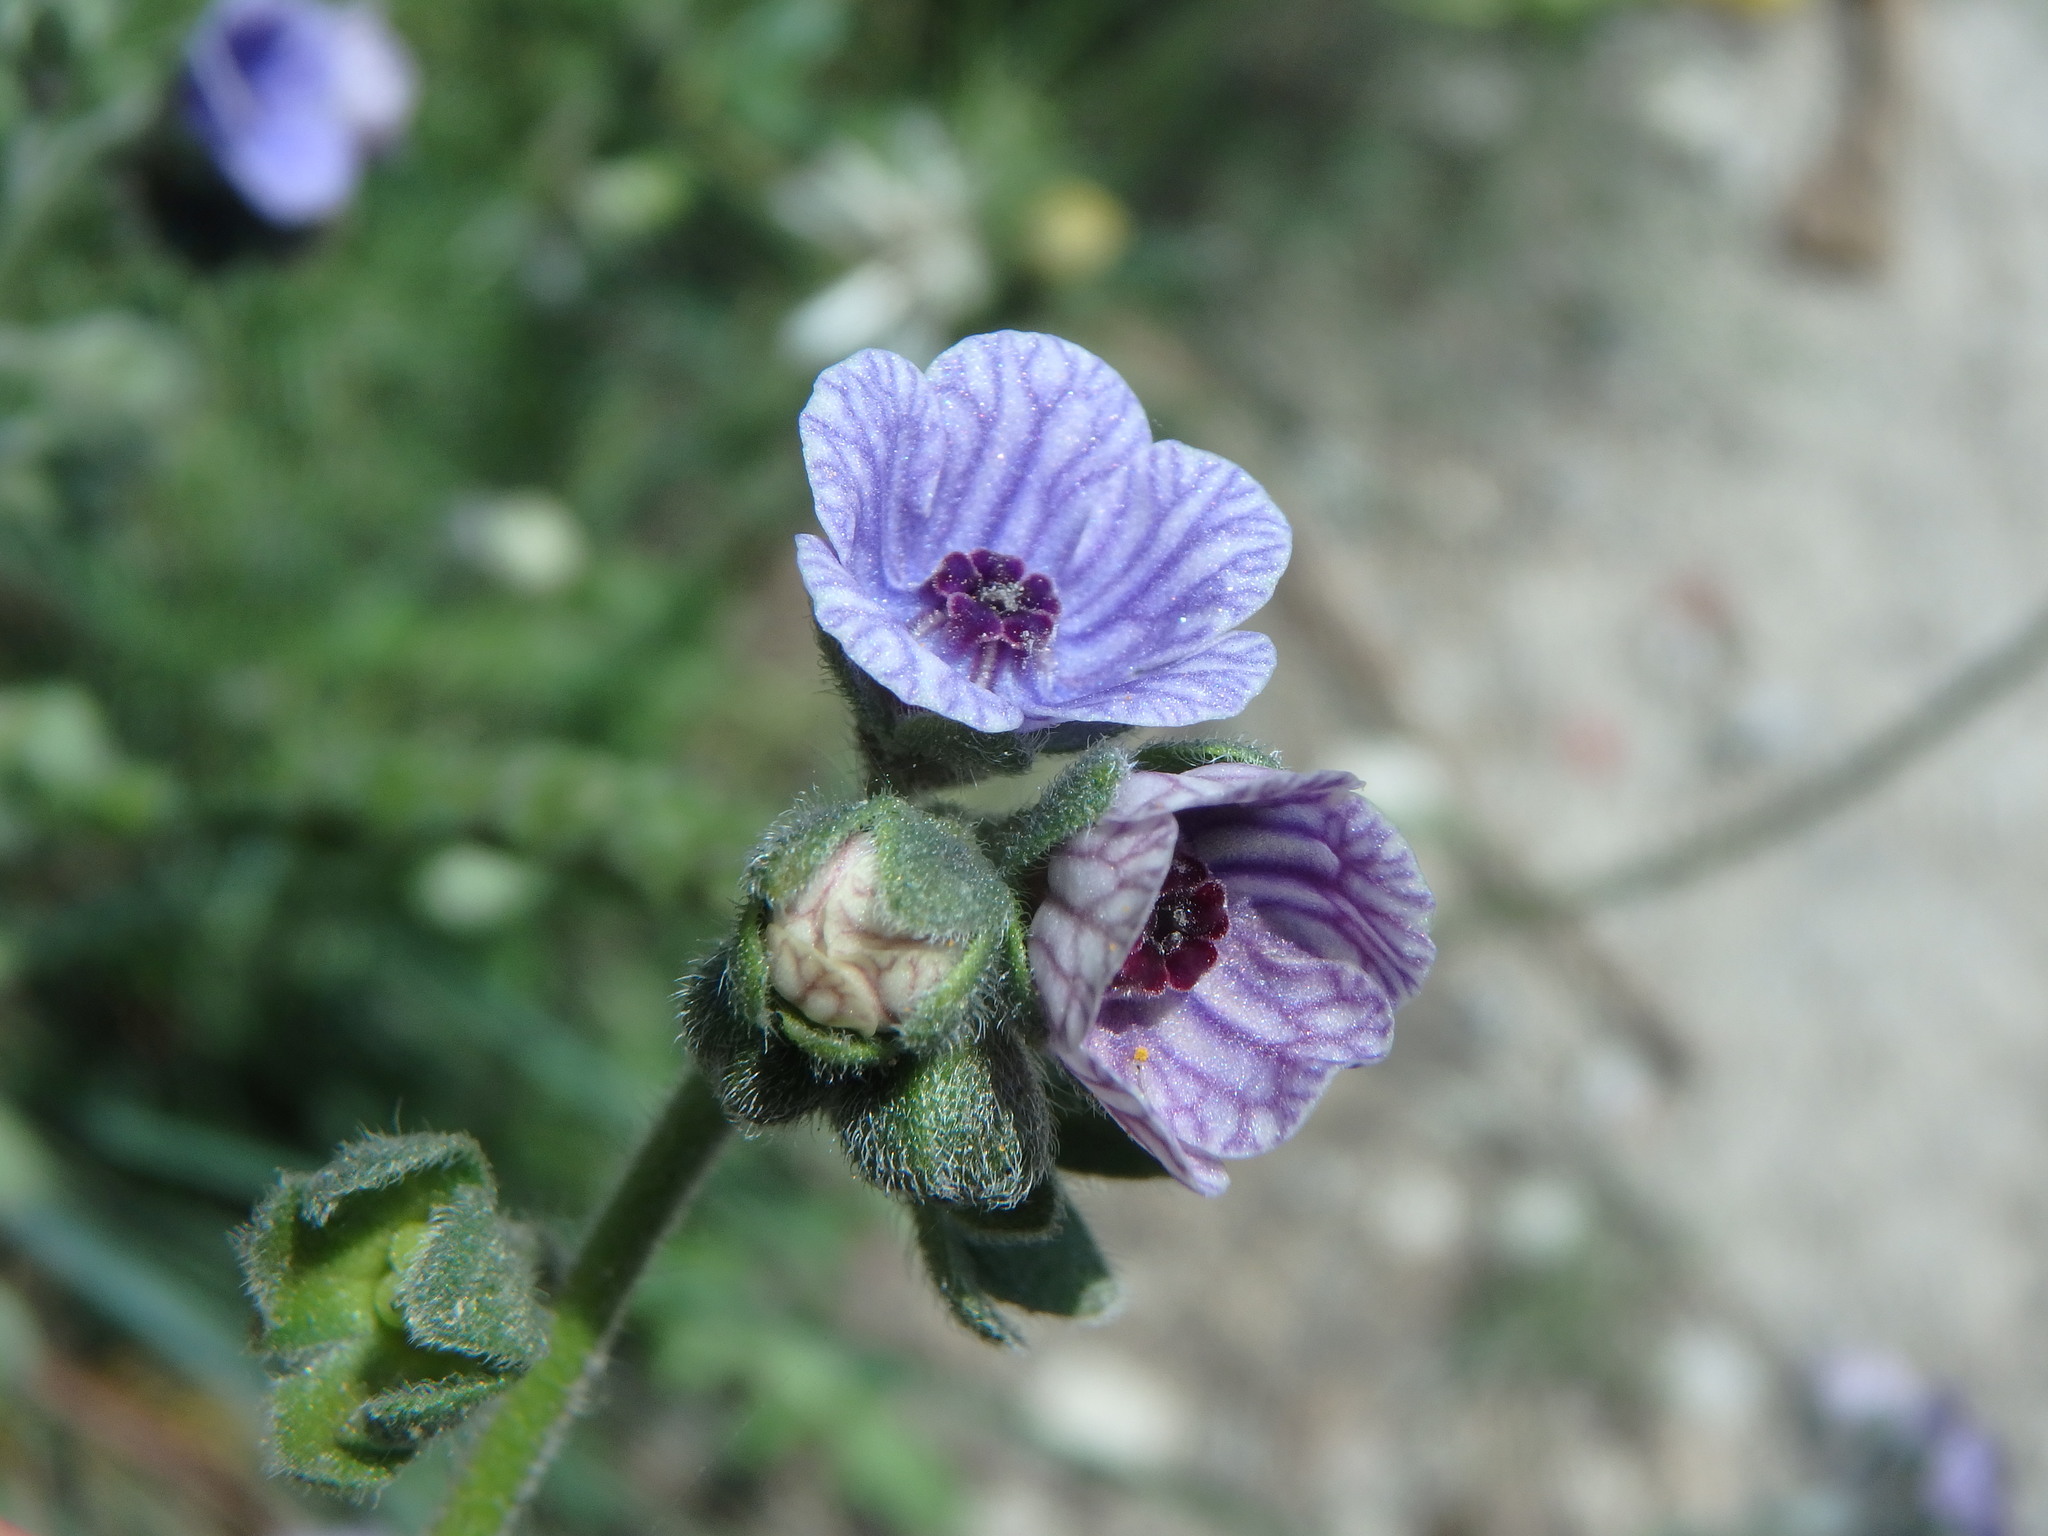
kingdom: Plantae
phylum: Tracheophyta
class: Magnoliopsida
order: Boraginales
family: Boraginaceae
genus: Cynoglossum
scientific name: Cynoglossum creticum
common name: Blue hound's tongue
